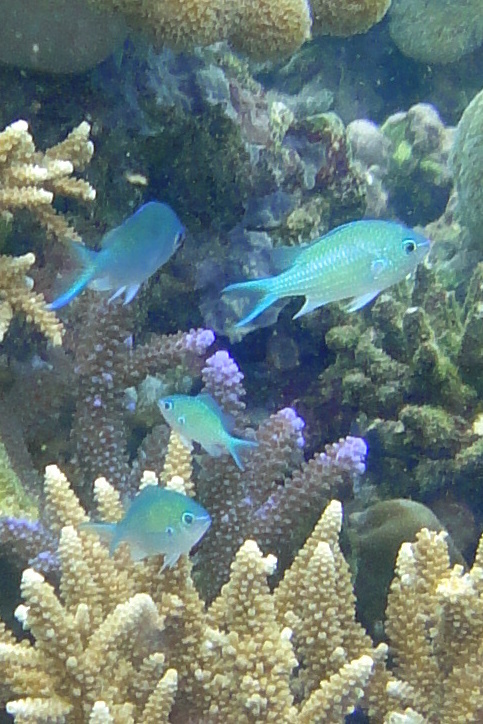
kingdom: Animalia
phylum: Chordata
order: Perciformes
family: Pomacentridae
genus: Chromis
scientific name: Chromis viridis
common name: Blue-green chromis
